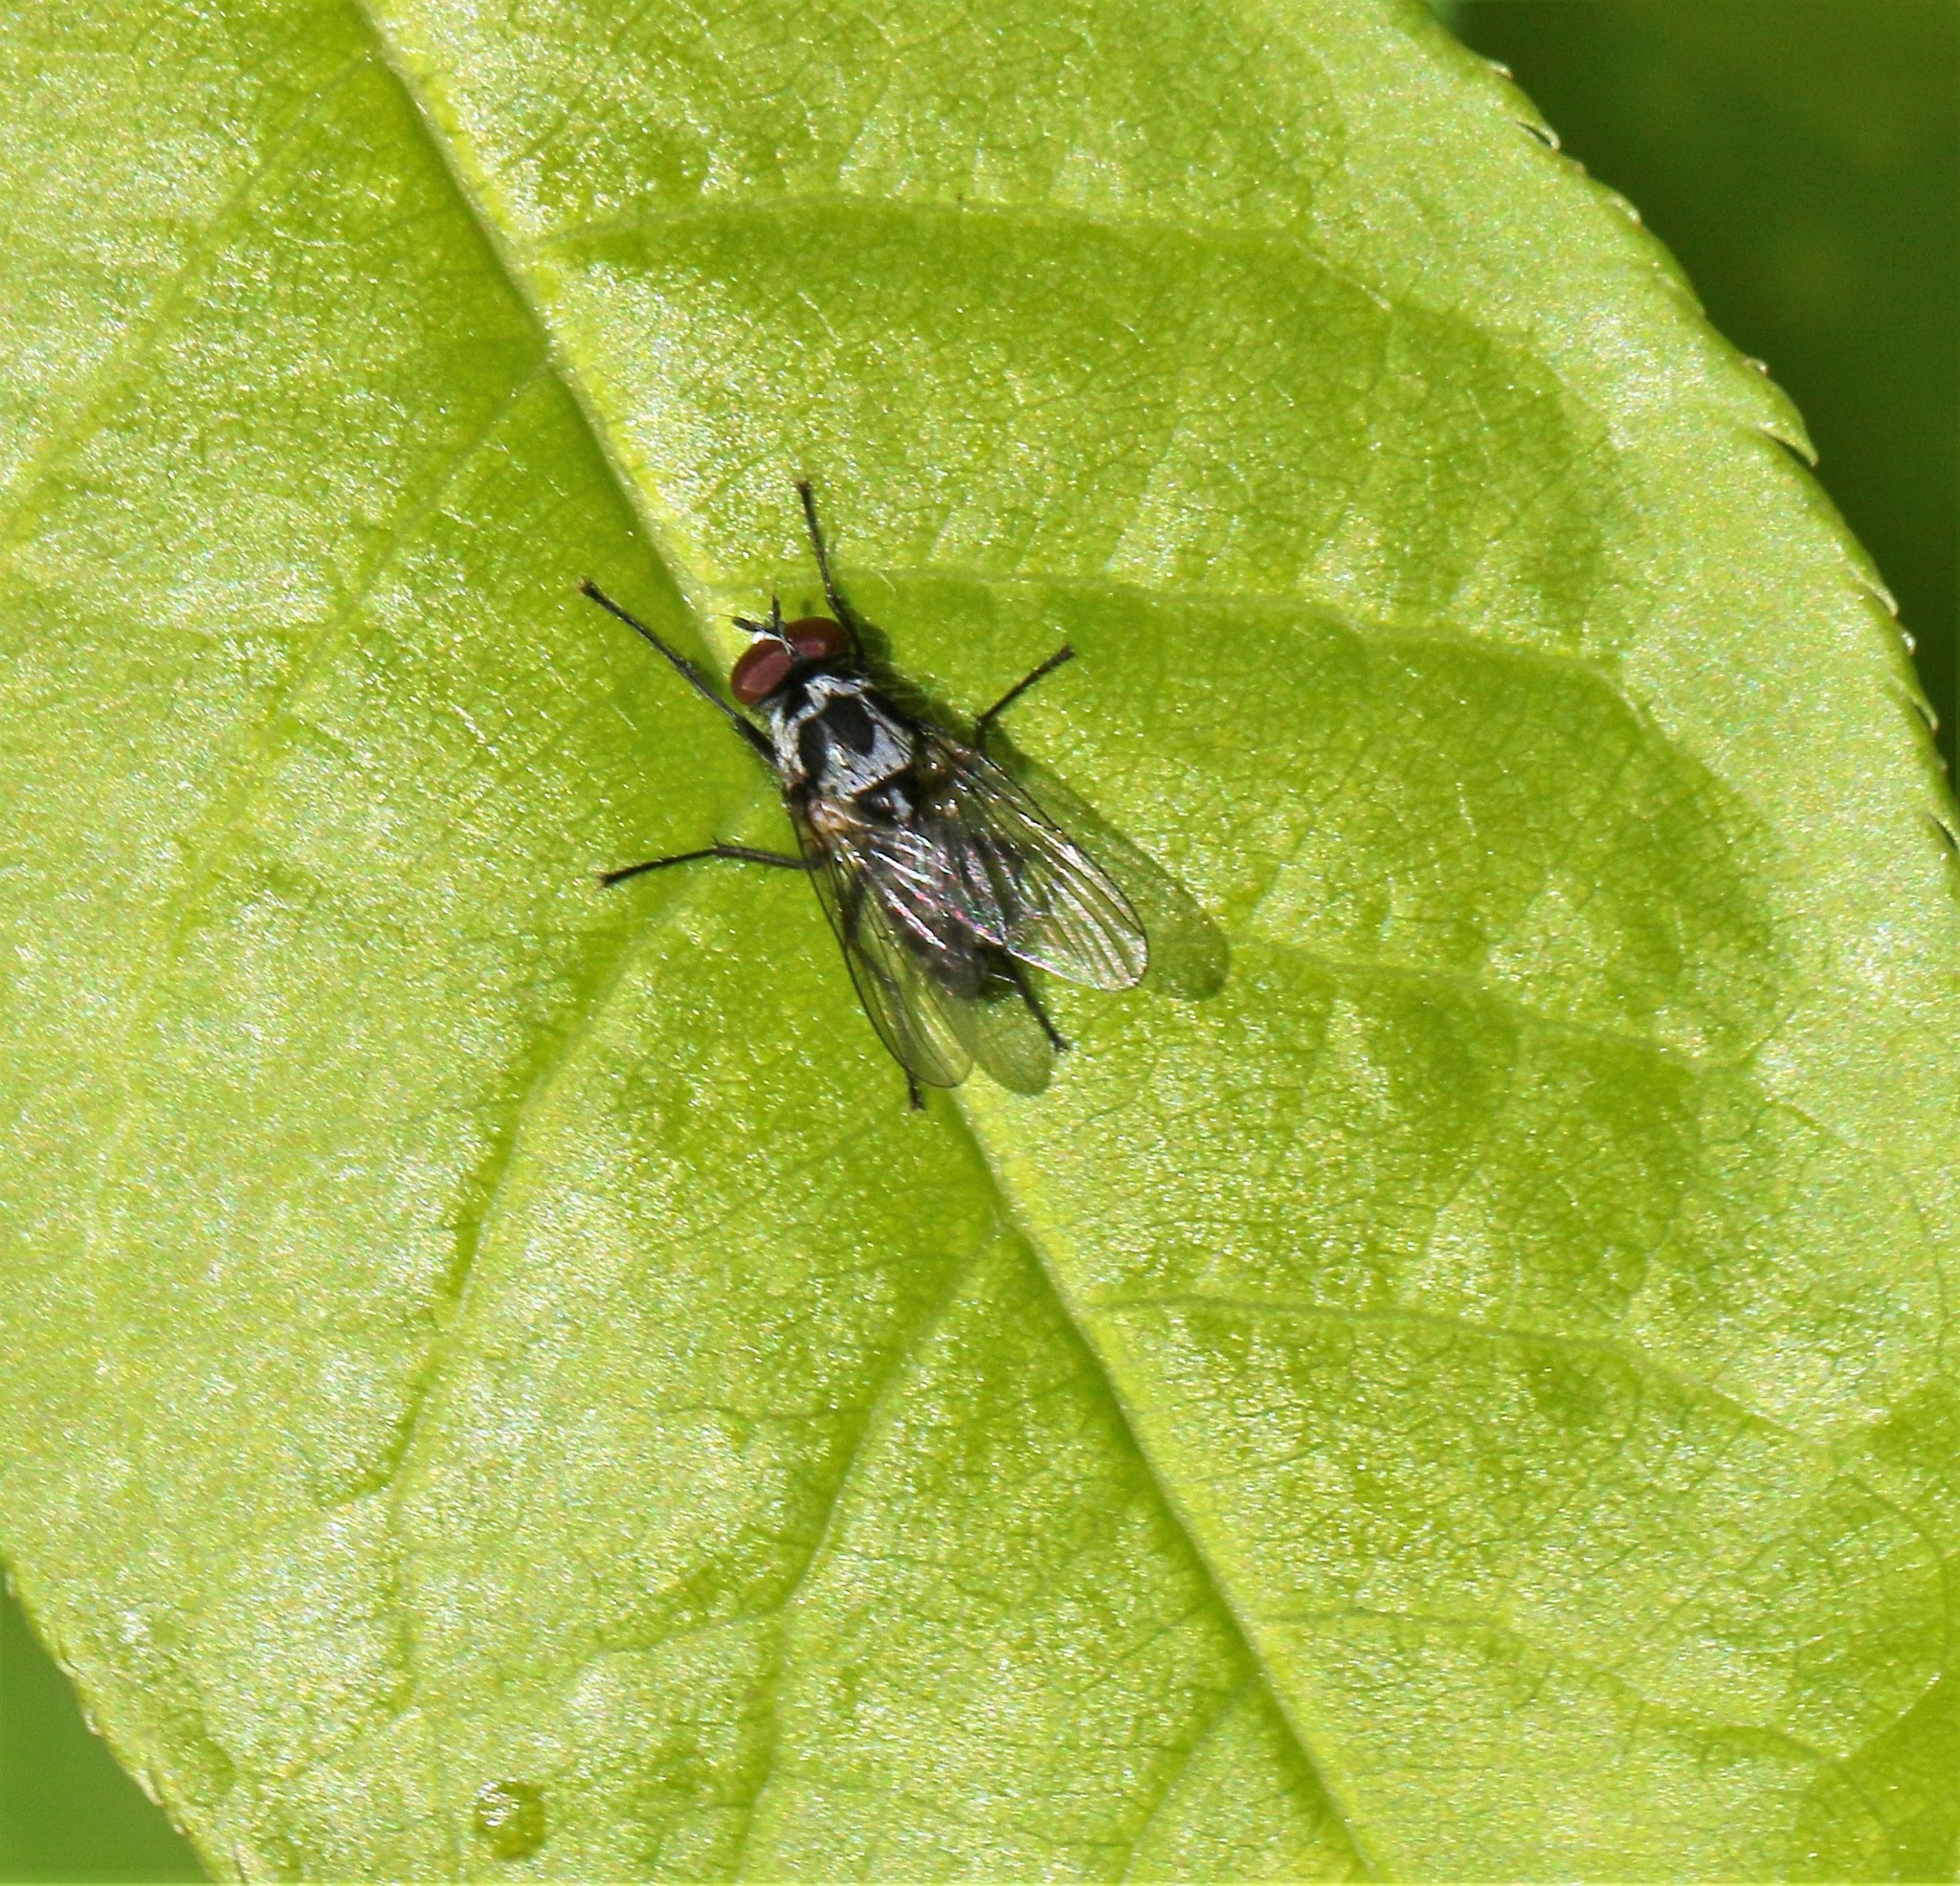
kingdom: Animalia
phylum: Arthropoda
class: Insecta
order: Diptera
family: Anthomyiidae
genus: Anthomyia
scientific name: Anthomyia procellaris
